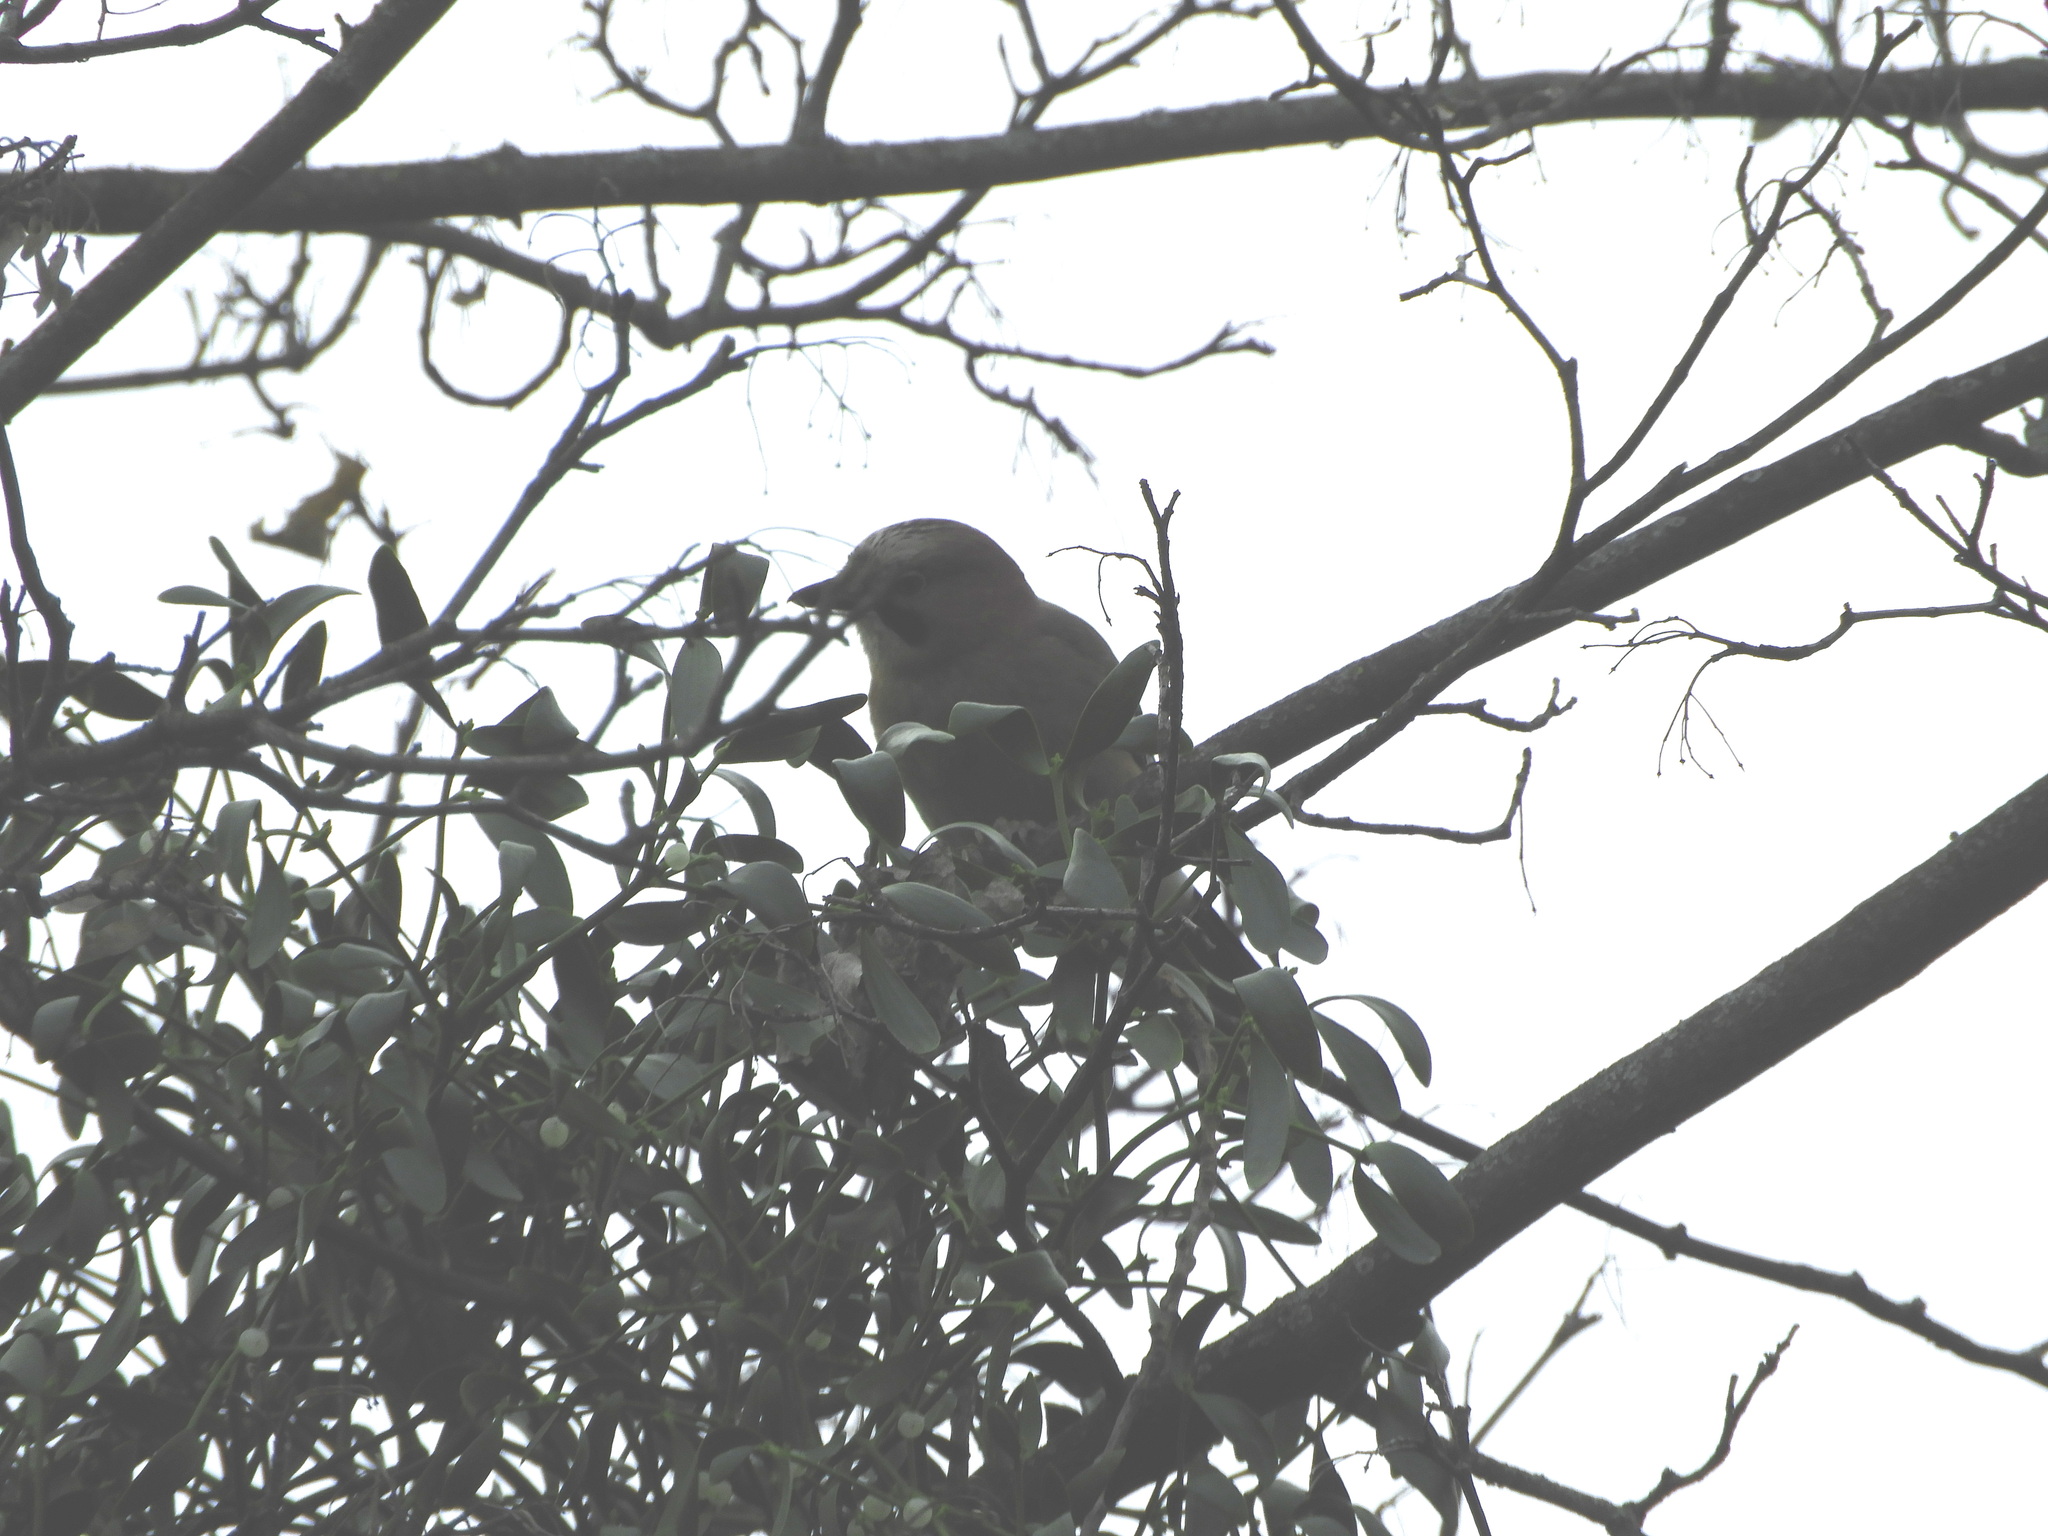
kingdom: Animalia
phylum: Chordata
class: Aves
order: Passeriformes
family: Corvidae
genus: Garrulus
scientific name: Garrulus glandarius
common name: Eurasian jay
